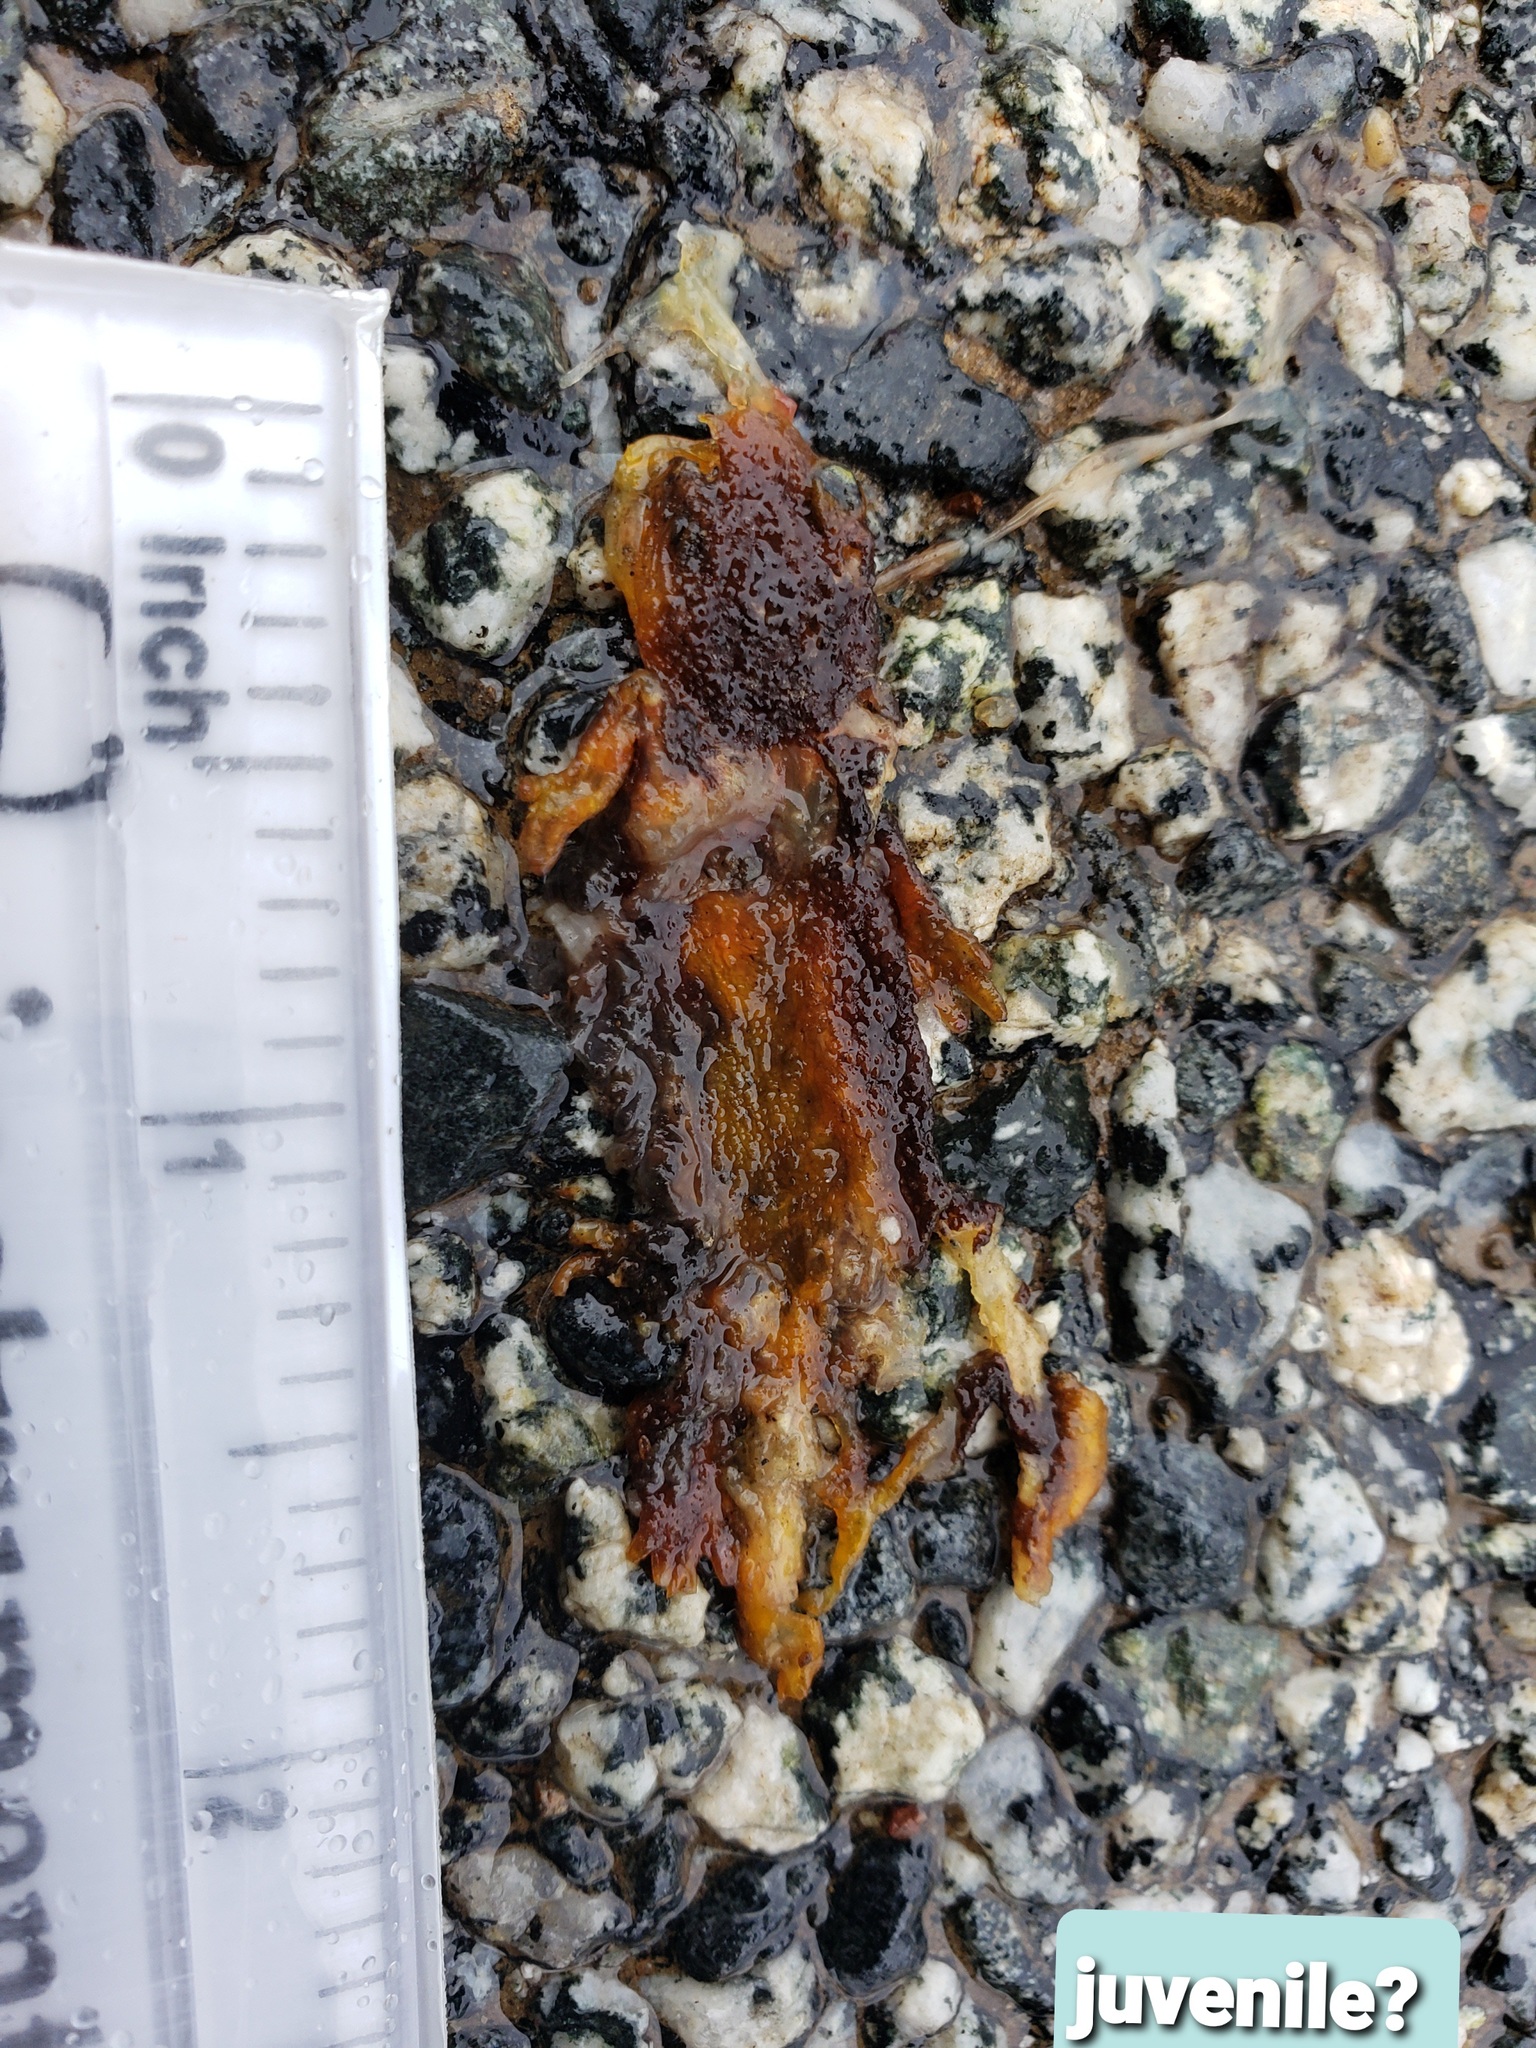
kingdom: Animalia
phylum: Chordata
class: Amphibia
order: Caudata
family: Salamandridae
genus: Taricha
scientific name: Taricha
